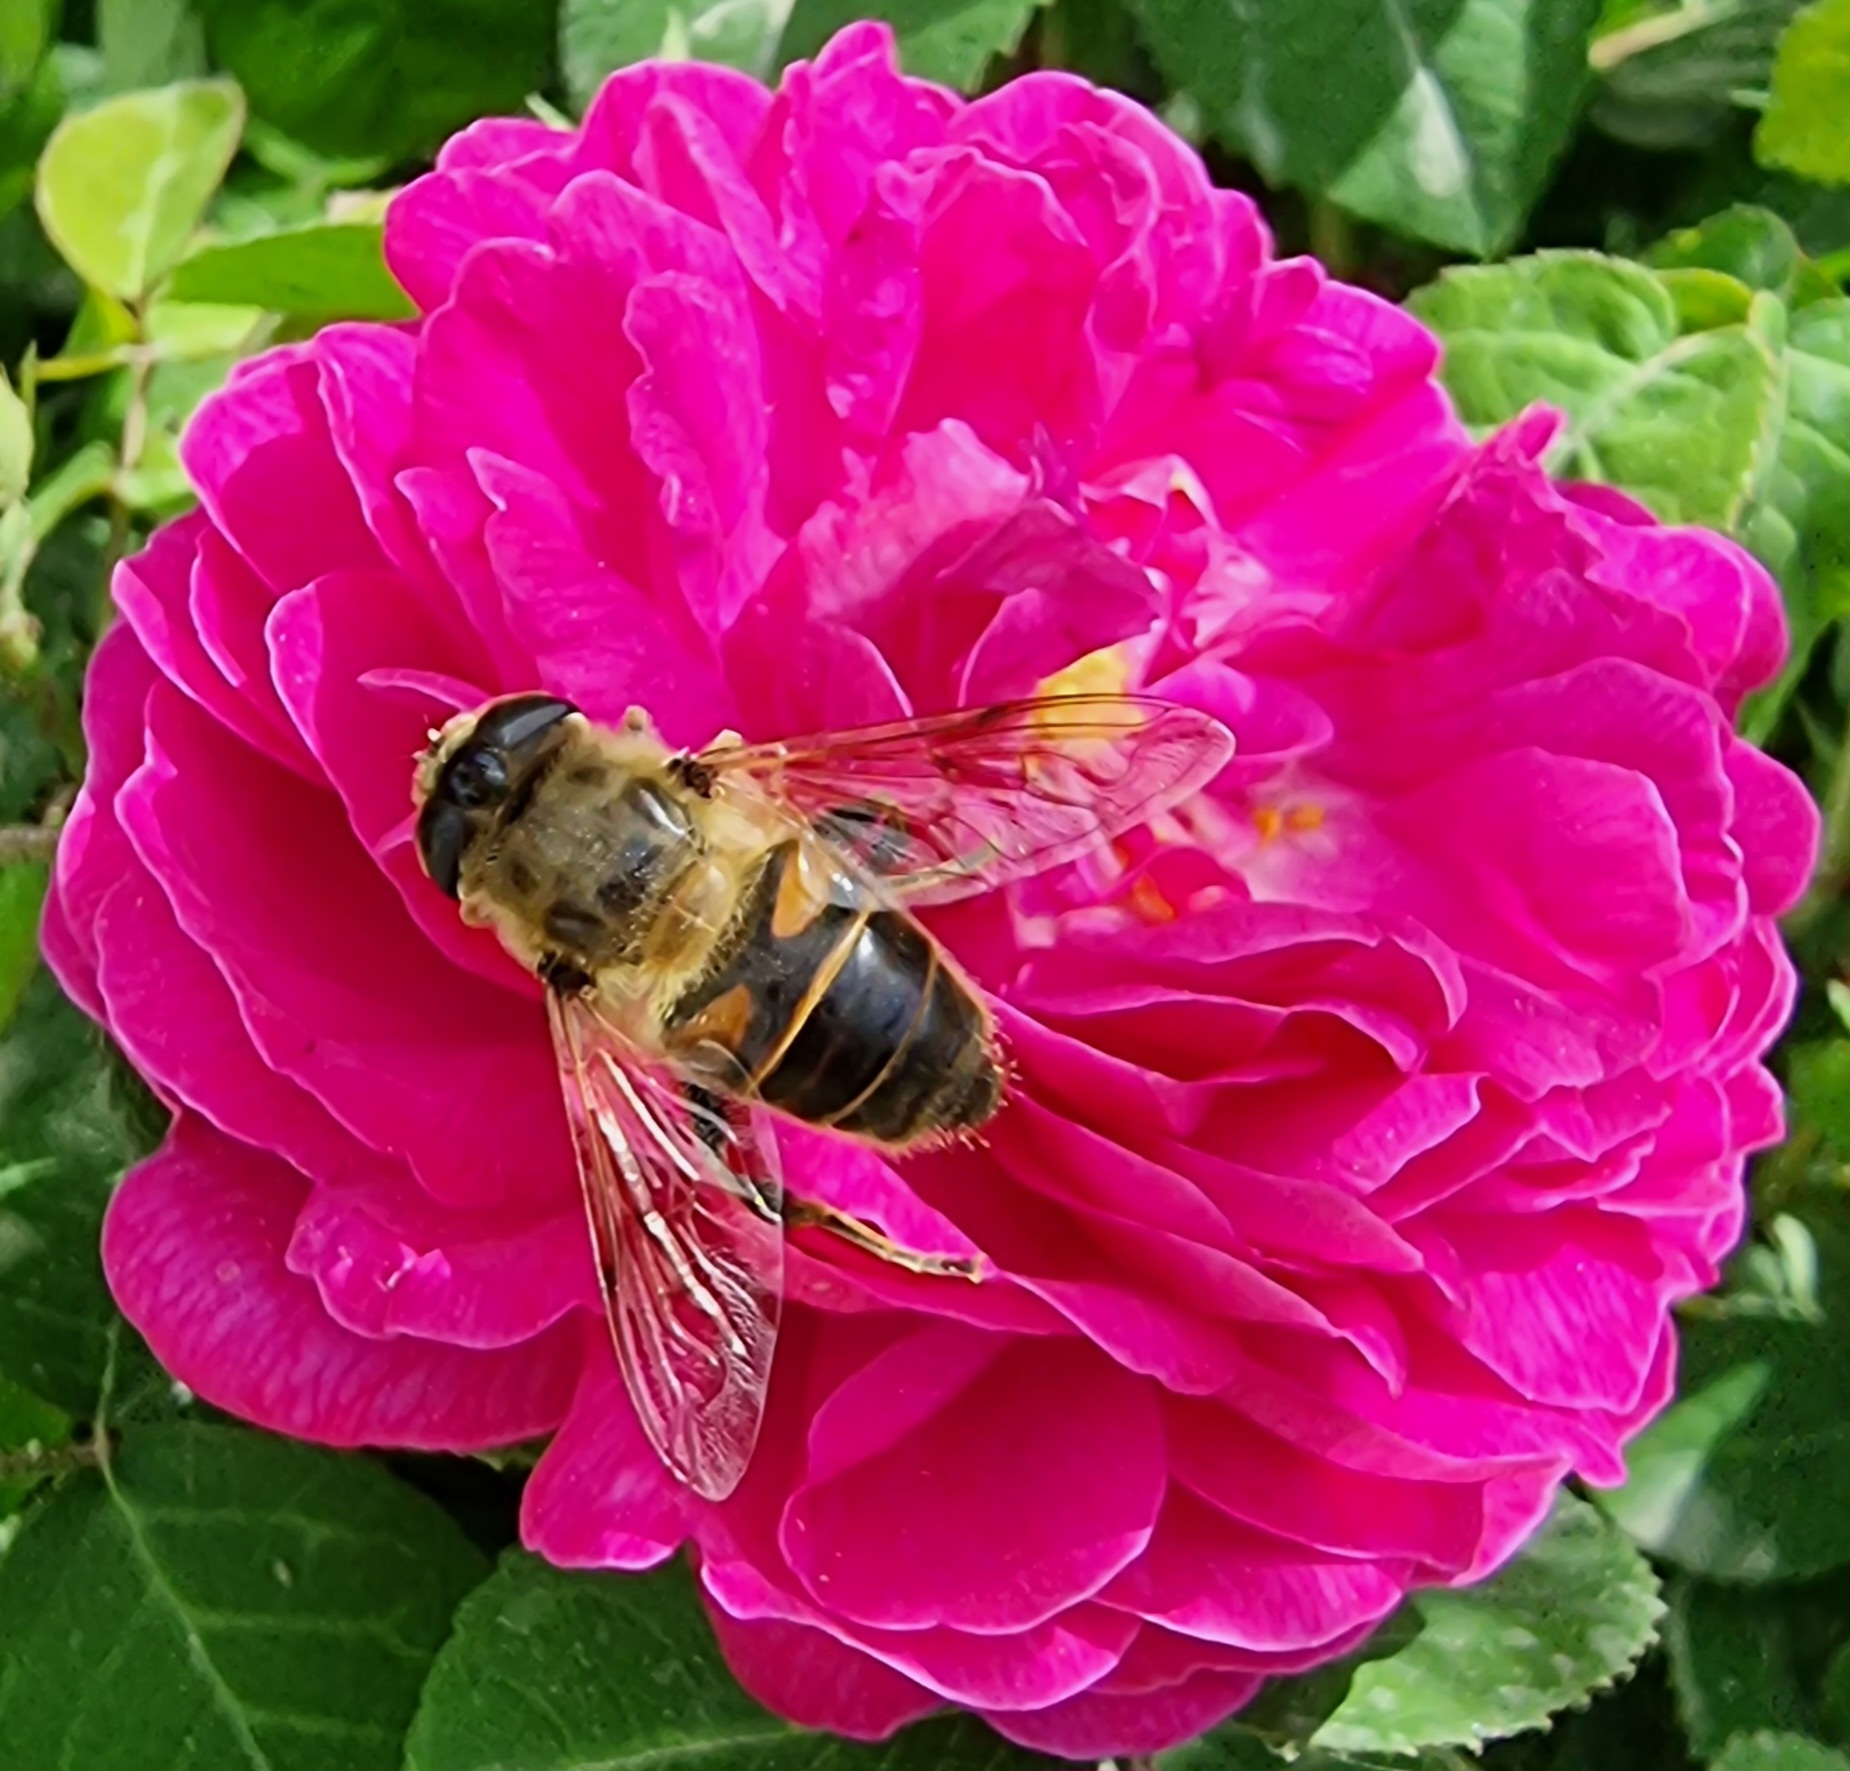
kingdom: Animalia
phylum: Arthropoda
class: Insecta
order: Diptera
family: Syrphidae
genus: Eristalis
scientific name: Eristalis tenax
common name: Drone fly
